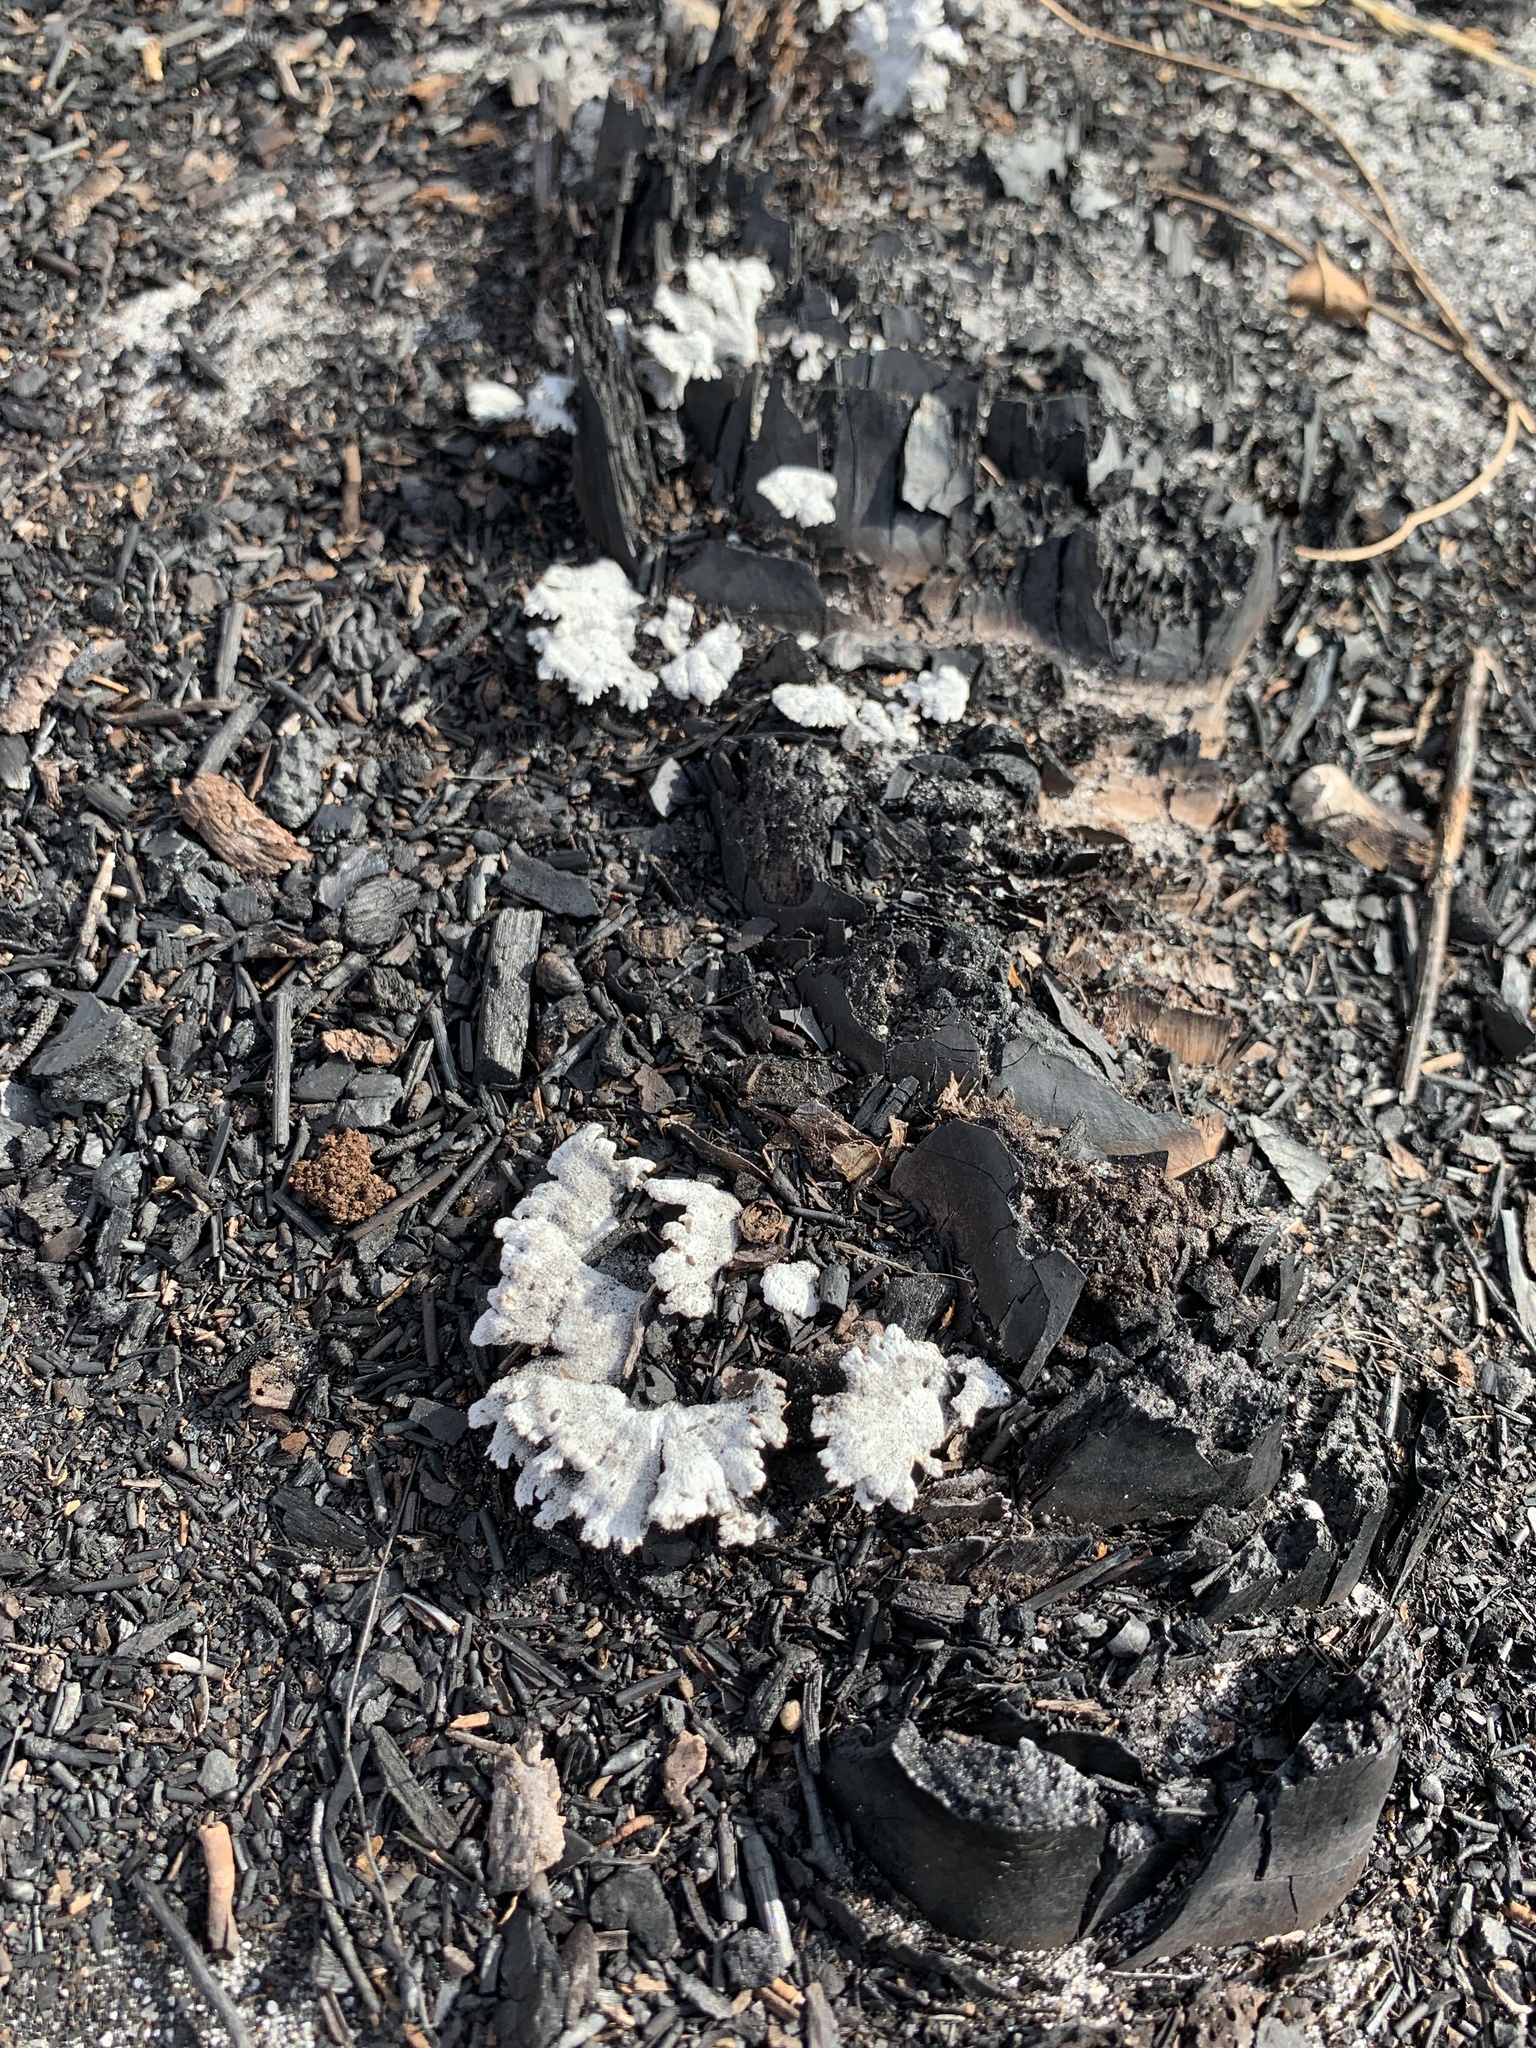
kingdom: Fungi
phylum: Basidiomycota
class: Agaricomycetes
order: Agaricales
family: Schizophyllaceae
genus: Schizophyllum
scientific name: Schizophyllum commune
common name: Common porecrust
